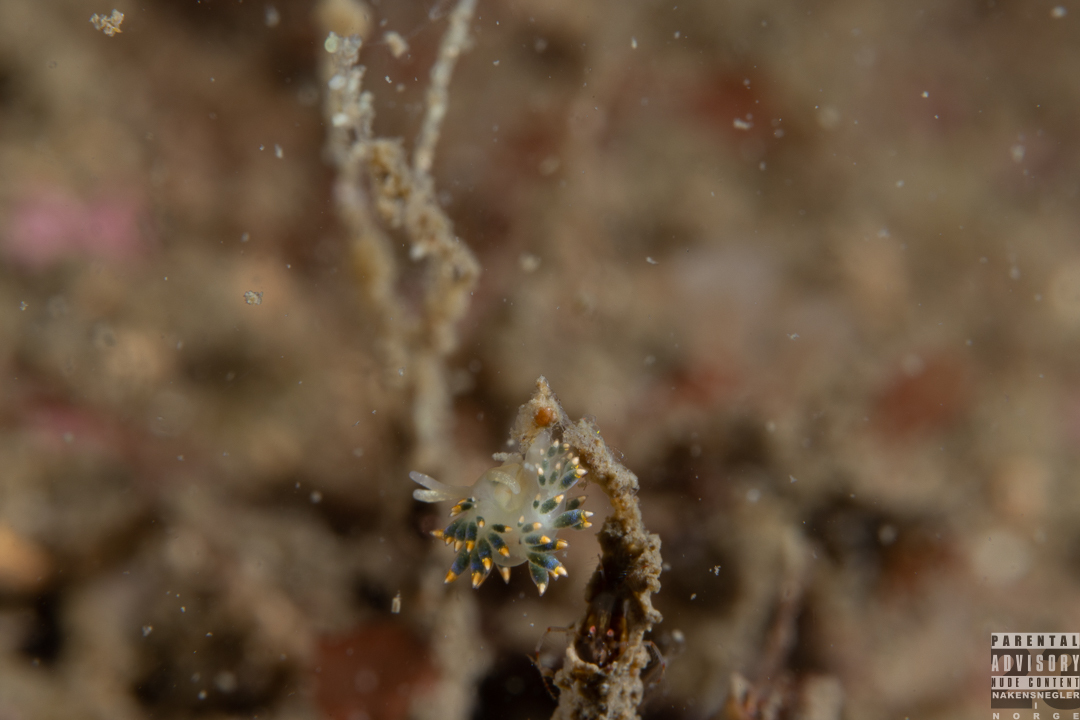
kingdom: Animalia
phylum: Mollusca
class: Gastropoda
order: Nudibranchia
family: Trinchesiidae
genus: Trinchesia
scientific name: Trinchesia cuanensis
